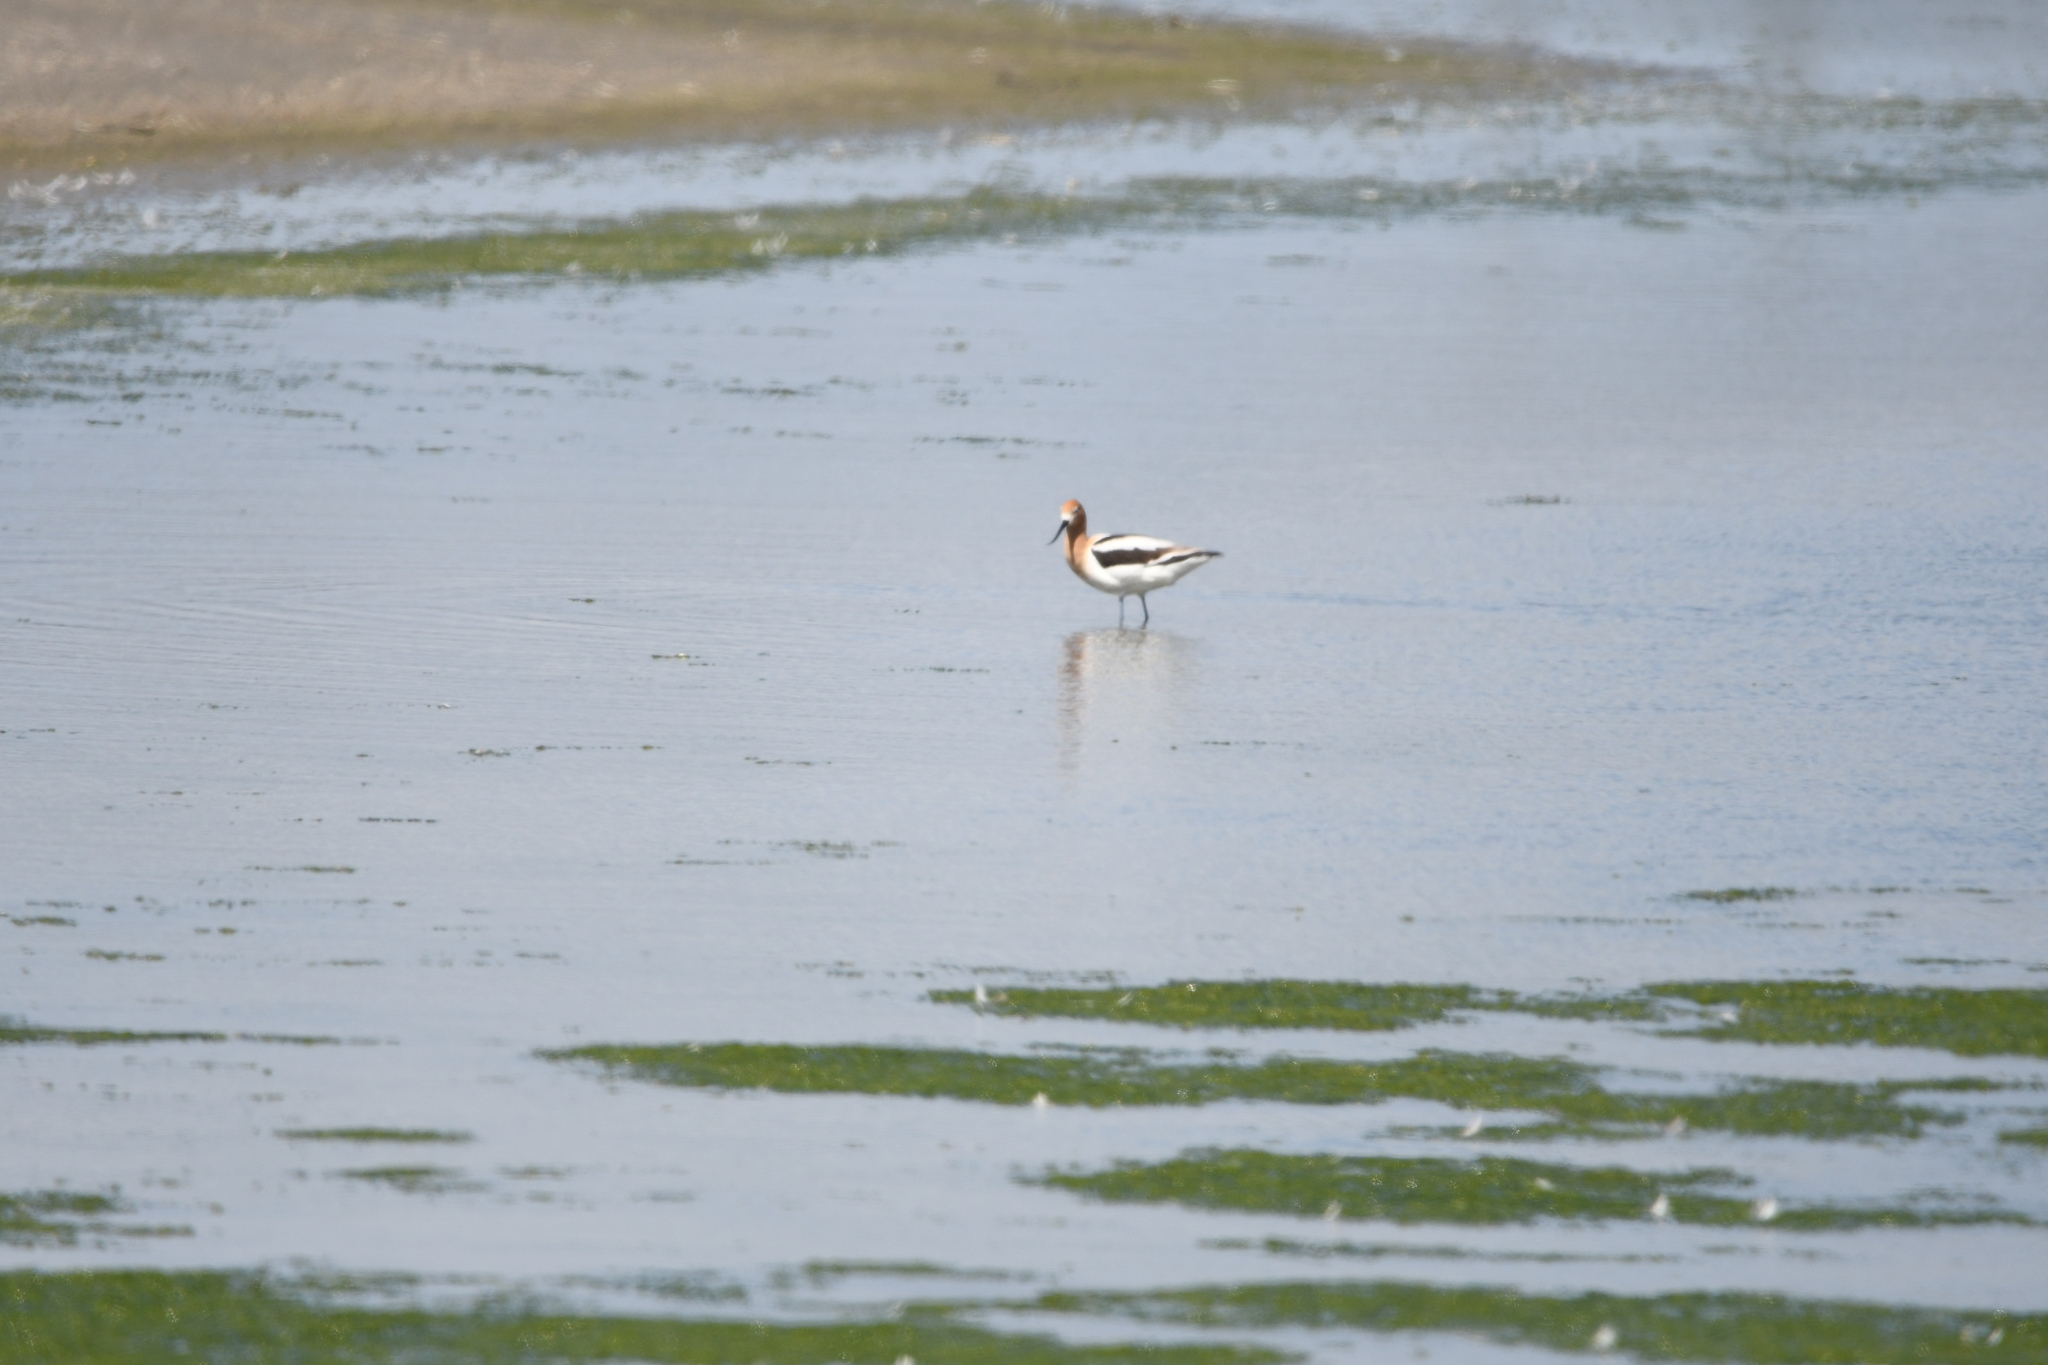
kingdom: Animalia
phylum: Chordata
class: Aves
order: Charadriiformes
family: Recurvirostridae
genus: Recurvirostra
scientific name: Recurvirostra americana
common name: American avocet
